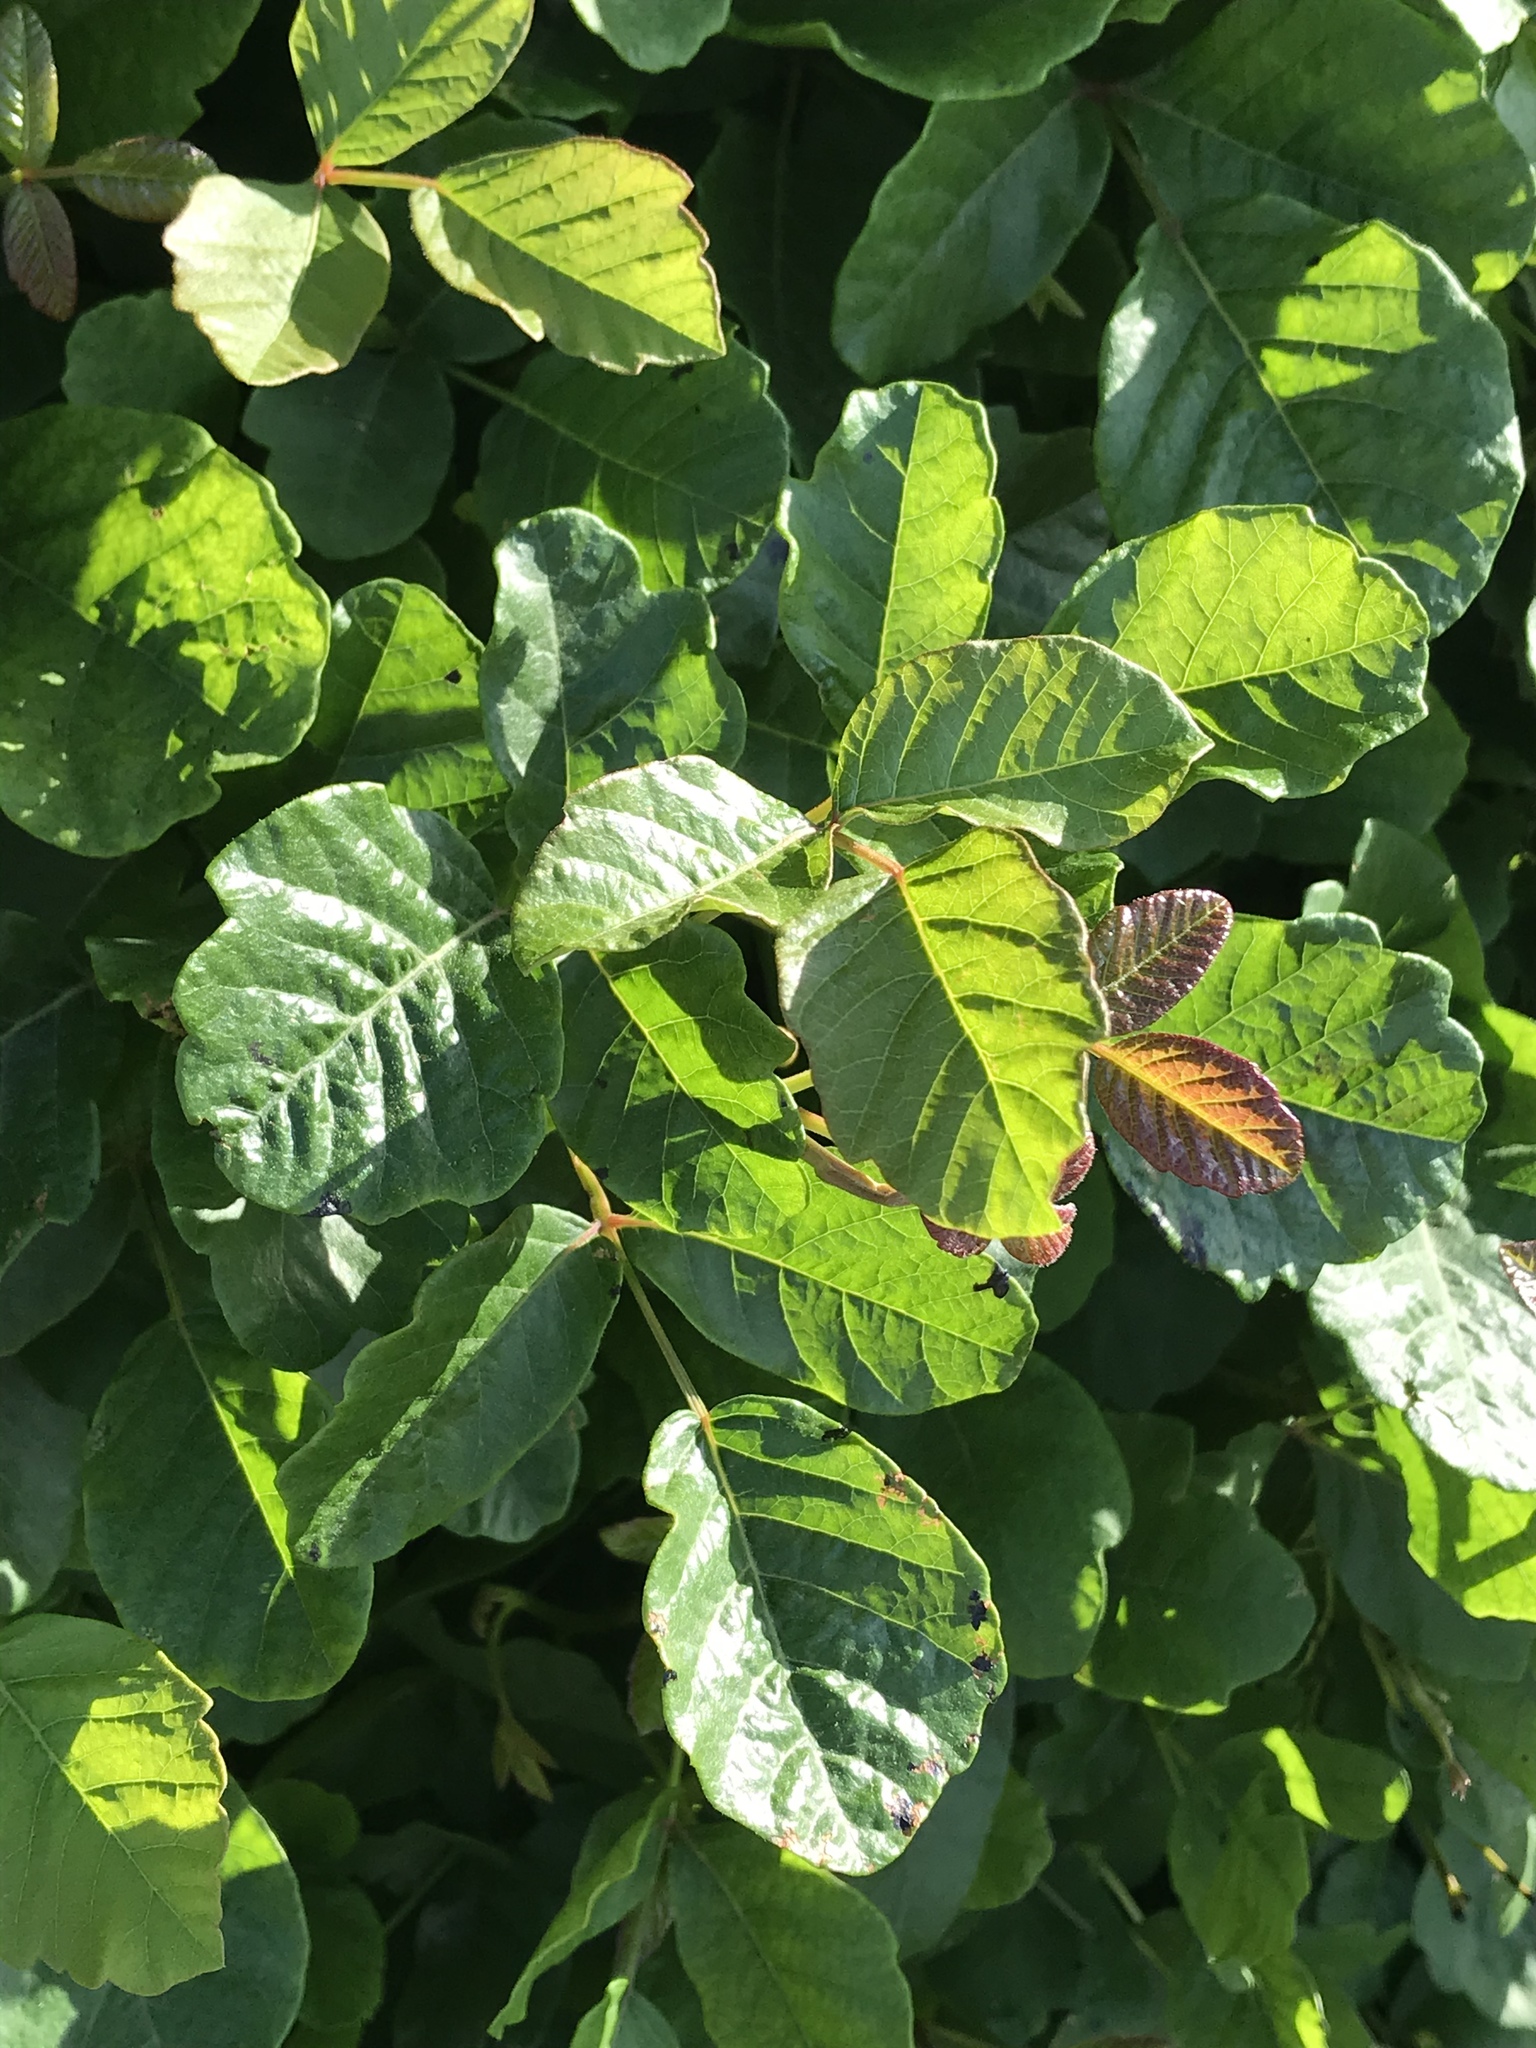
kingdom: Plantae
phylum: Tracheophyta
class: Magnoliopsida
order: Sapindales
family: Anacardiaceae
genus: Toxicodendron
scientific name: Toxicodendron diversilobum
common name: Pacific poison-oak
